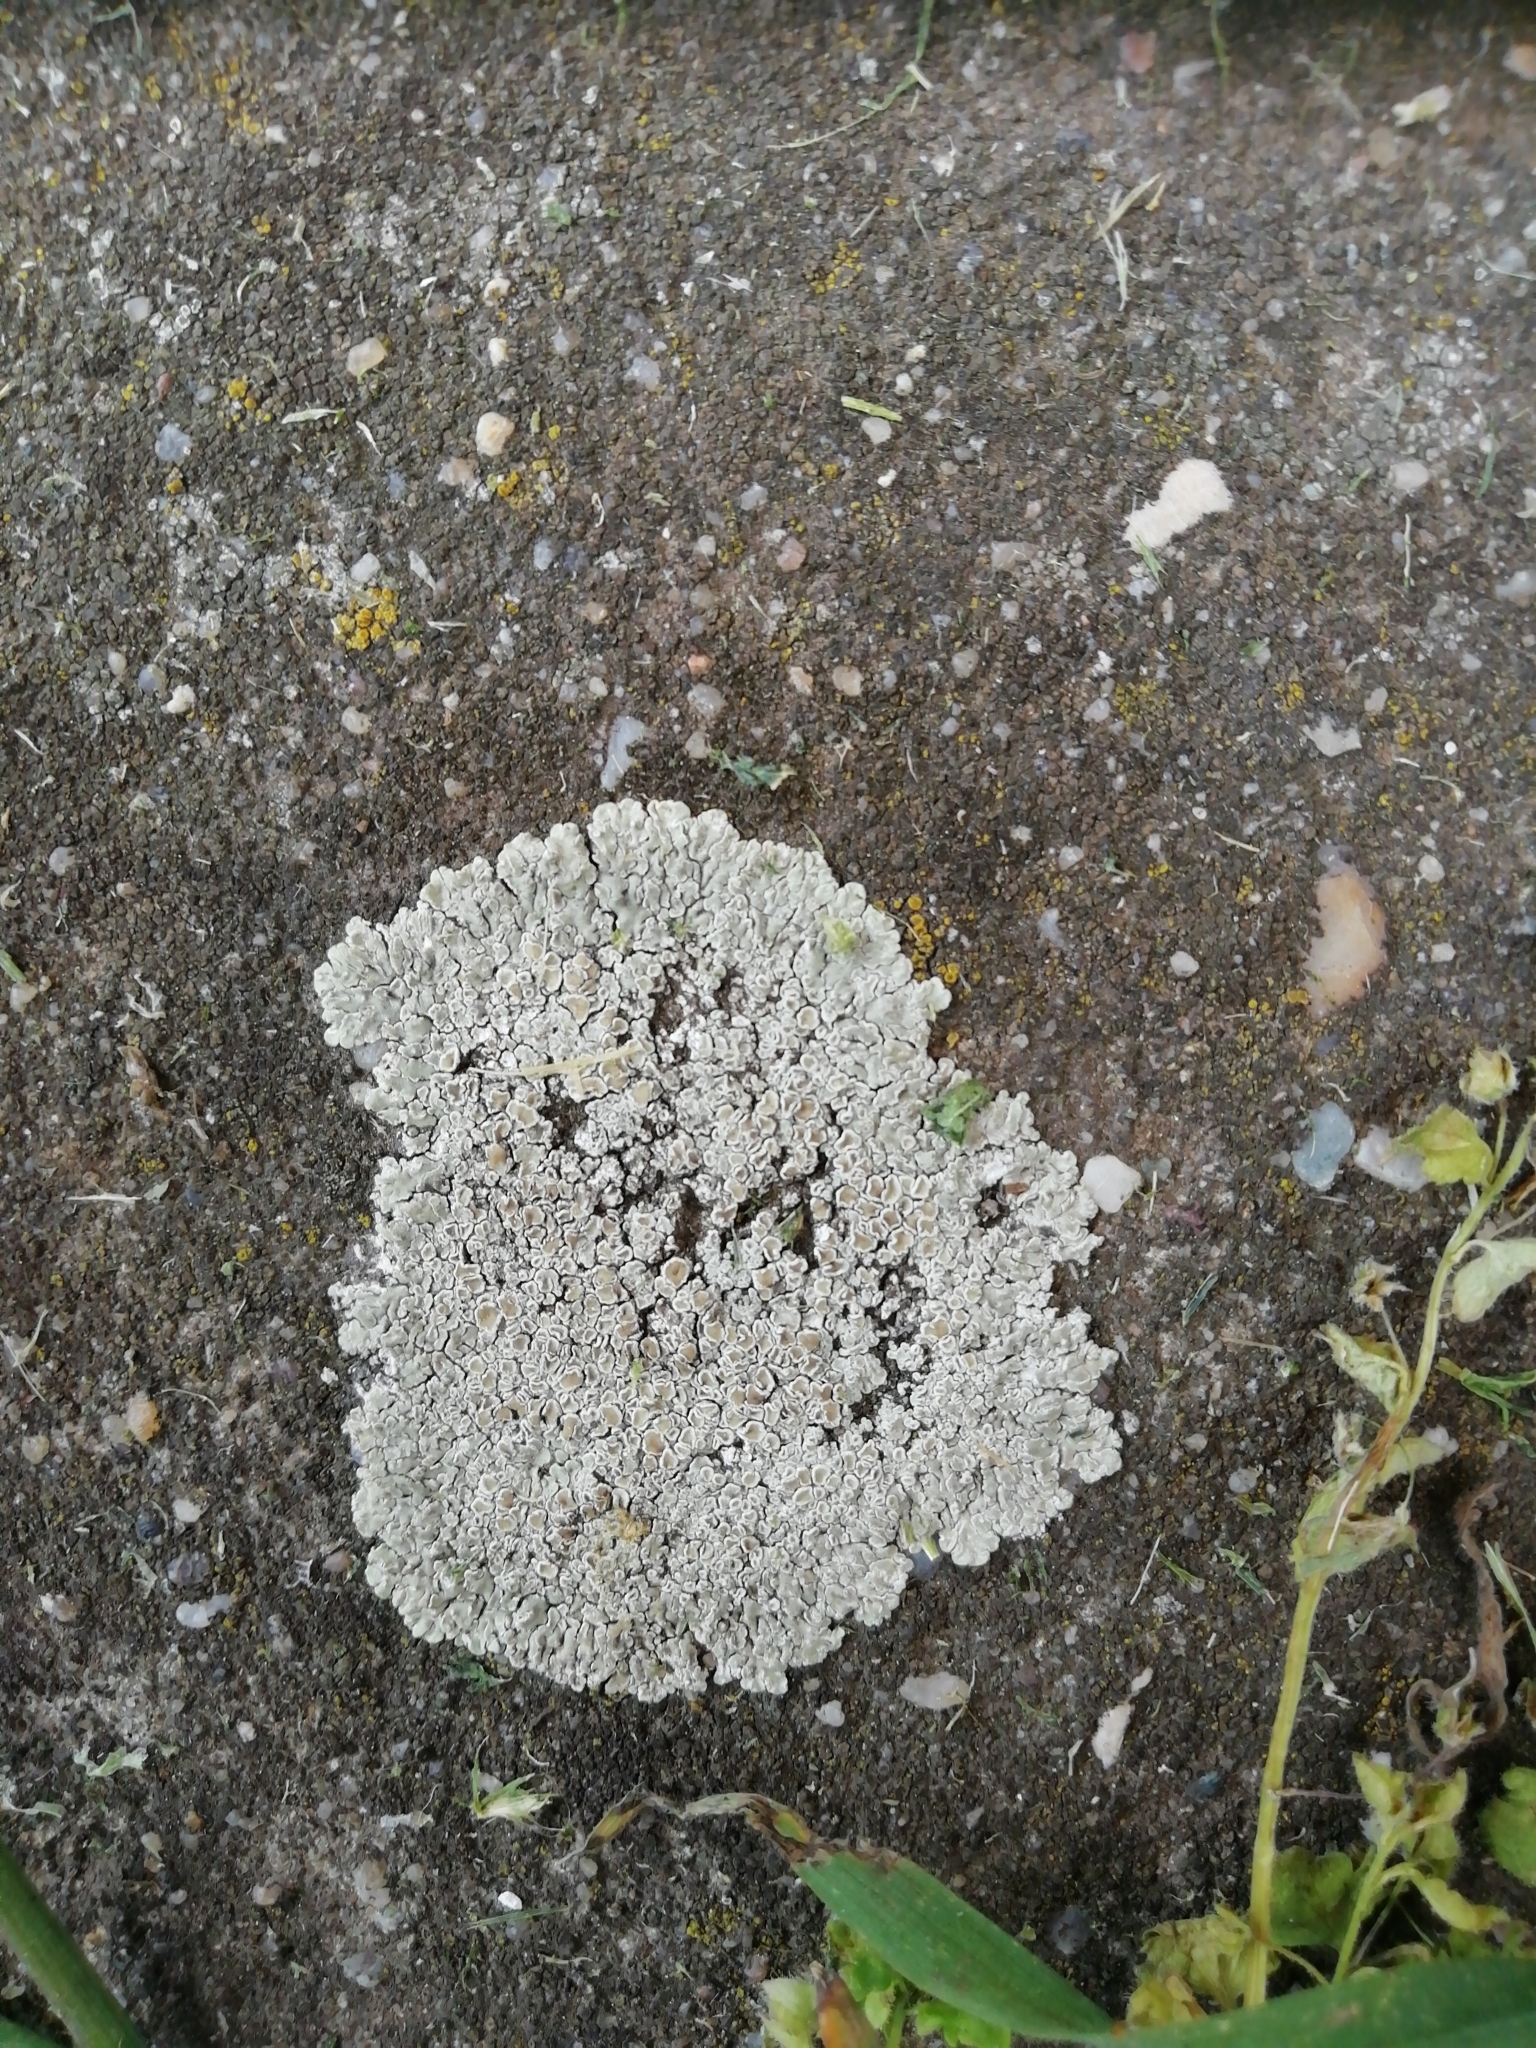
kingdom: Fungi
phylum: Ascomycota
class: Lecanoromycetes
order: Lecanorales
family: Lecanoraceae
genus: Protoparmeliopsis
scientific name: Protoparmeliopsis muralis
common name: Stonewall rim lichen
